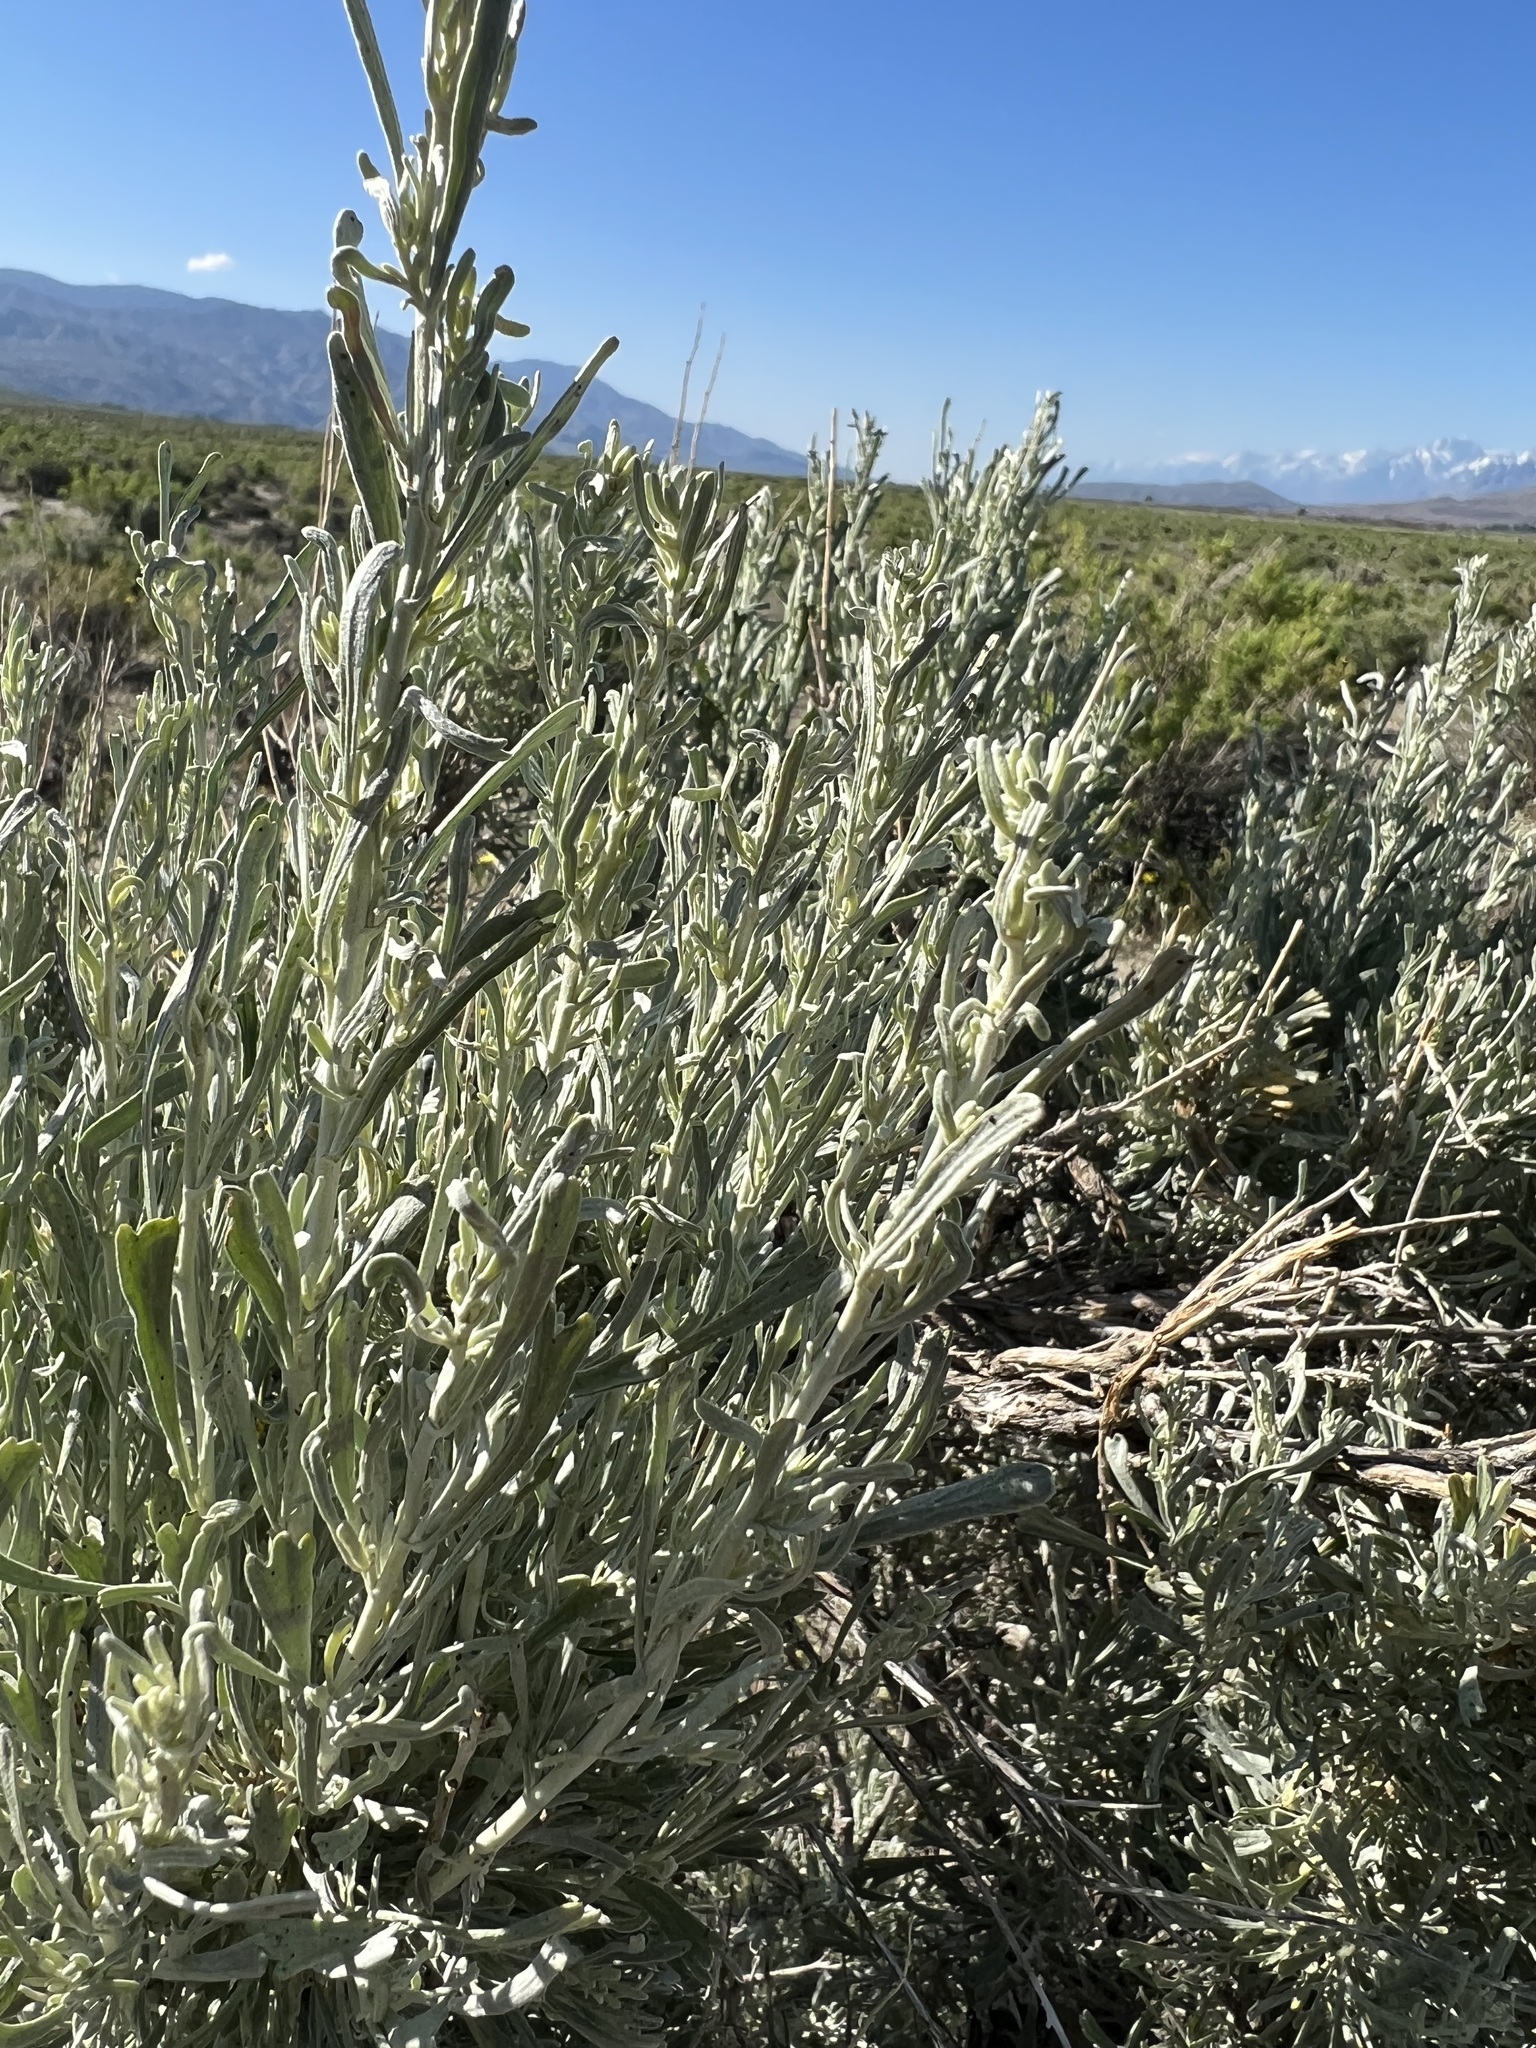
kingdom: Plantae
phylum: Tracheophyta
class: Magnoliopsida
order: Asterales
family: Asteraceae
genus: Artemisia
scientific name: Artemisia tridentata
